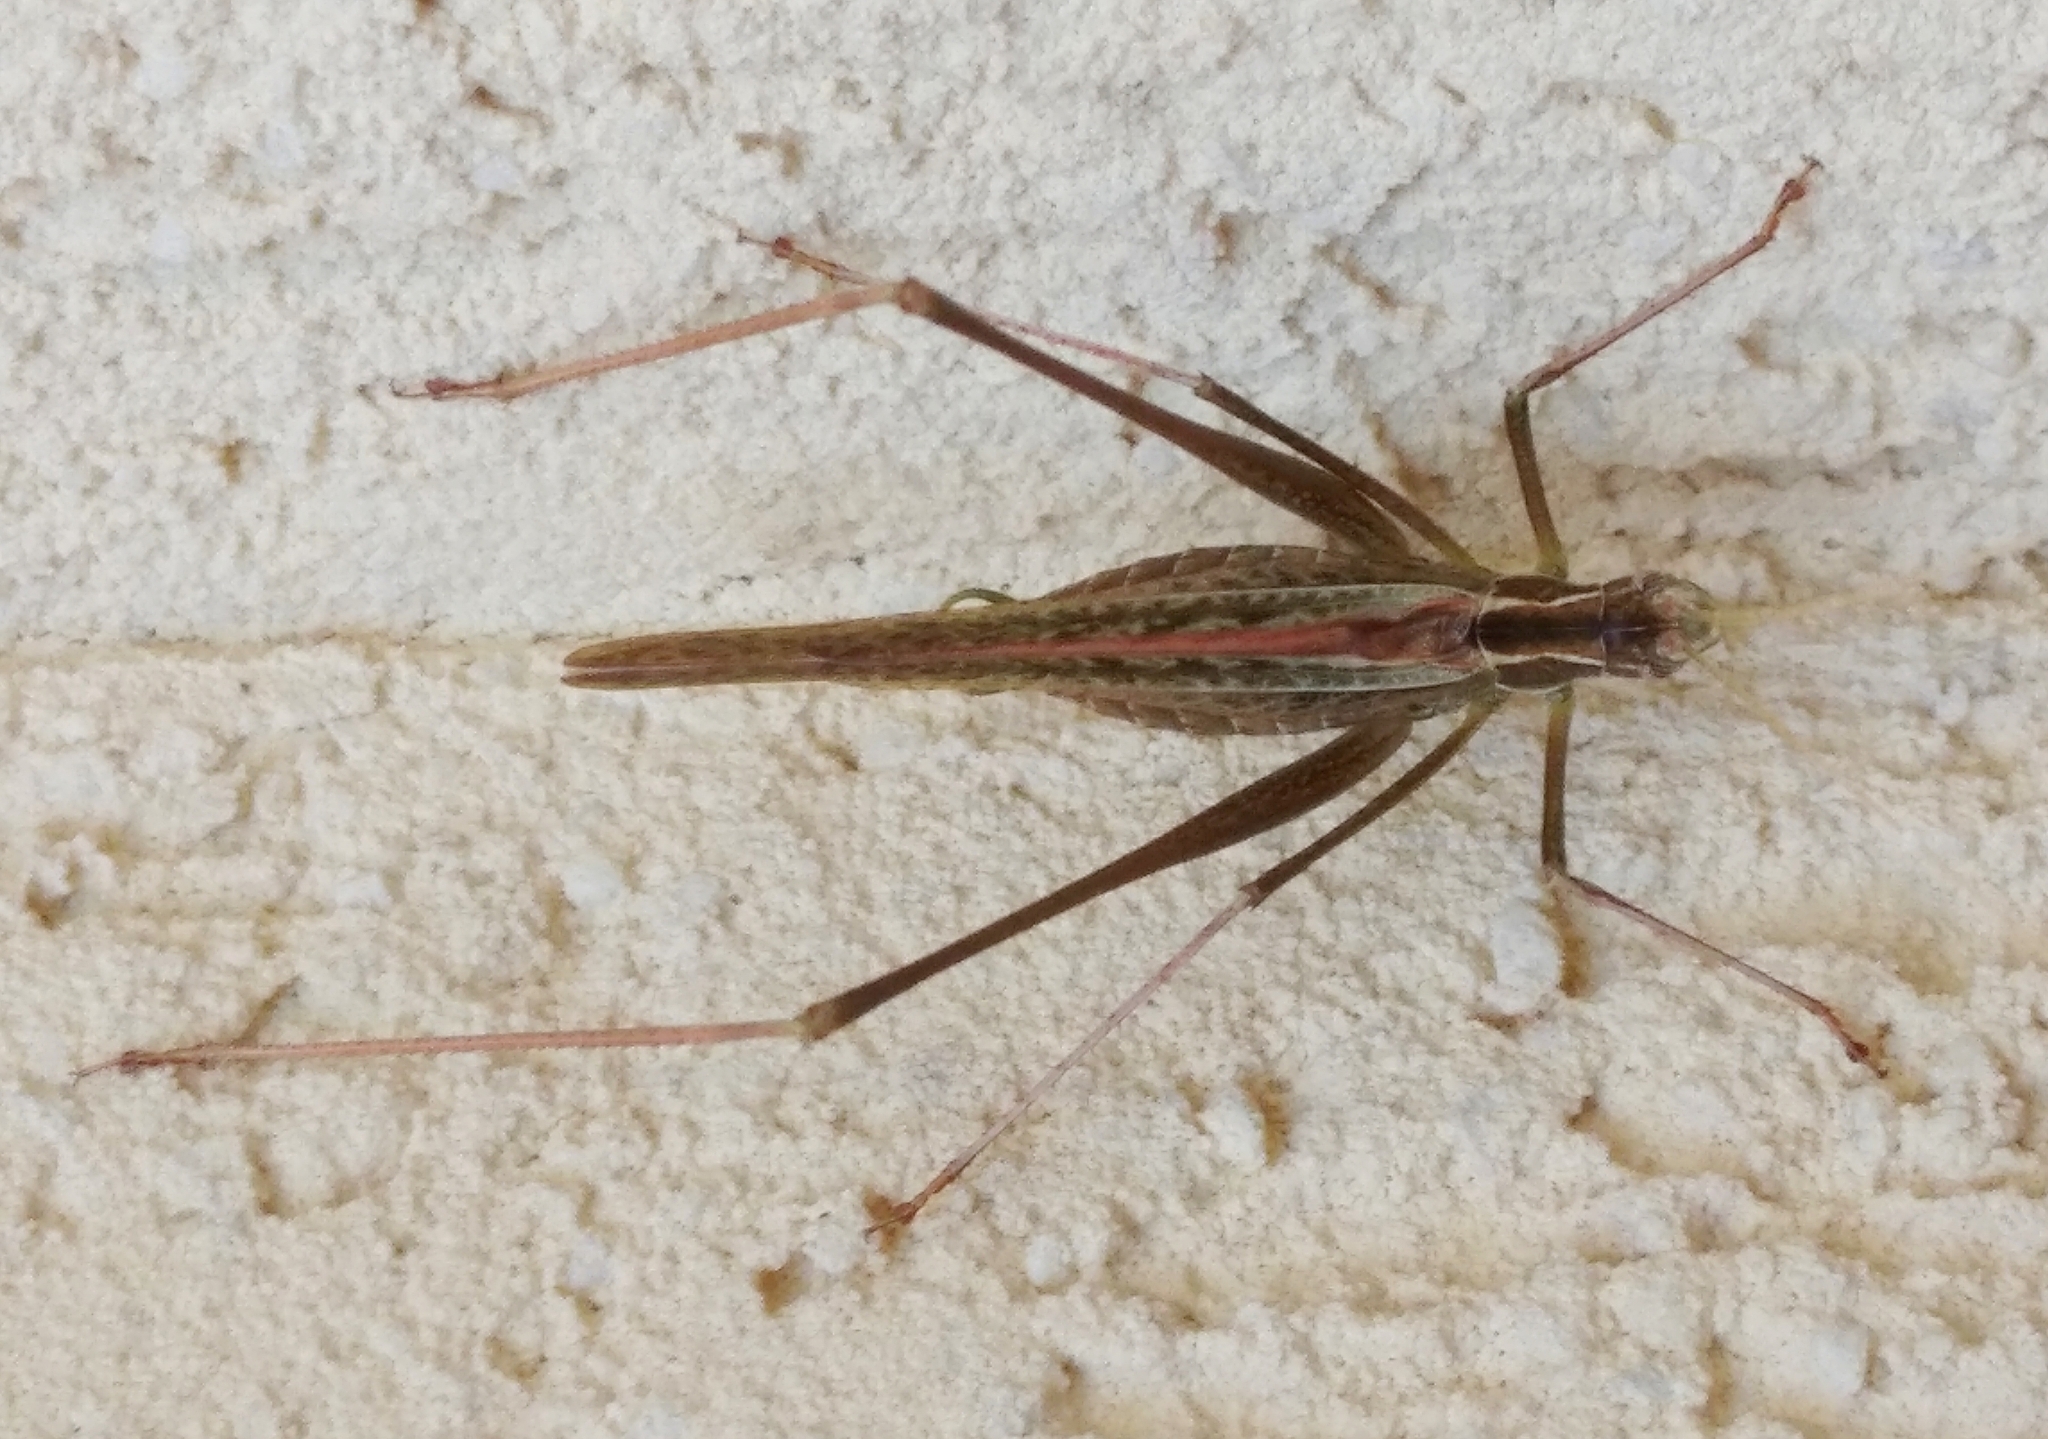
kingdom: Animalia
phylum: Arthropoda
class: Insecta
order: Orthoptera
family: Tettigoniidae
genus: Tylopsis
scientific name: Tylopsis lilifolia
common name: Lily bush-cricket
